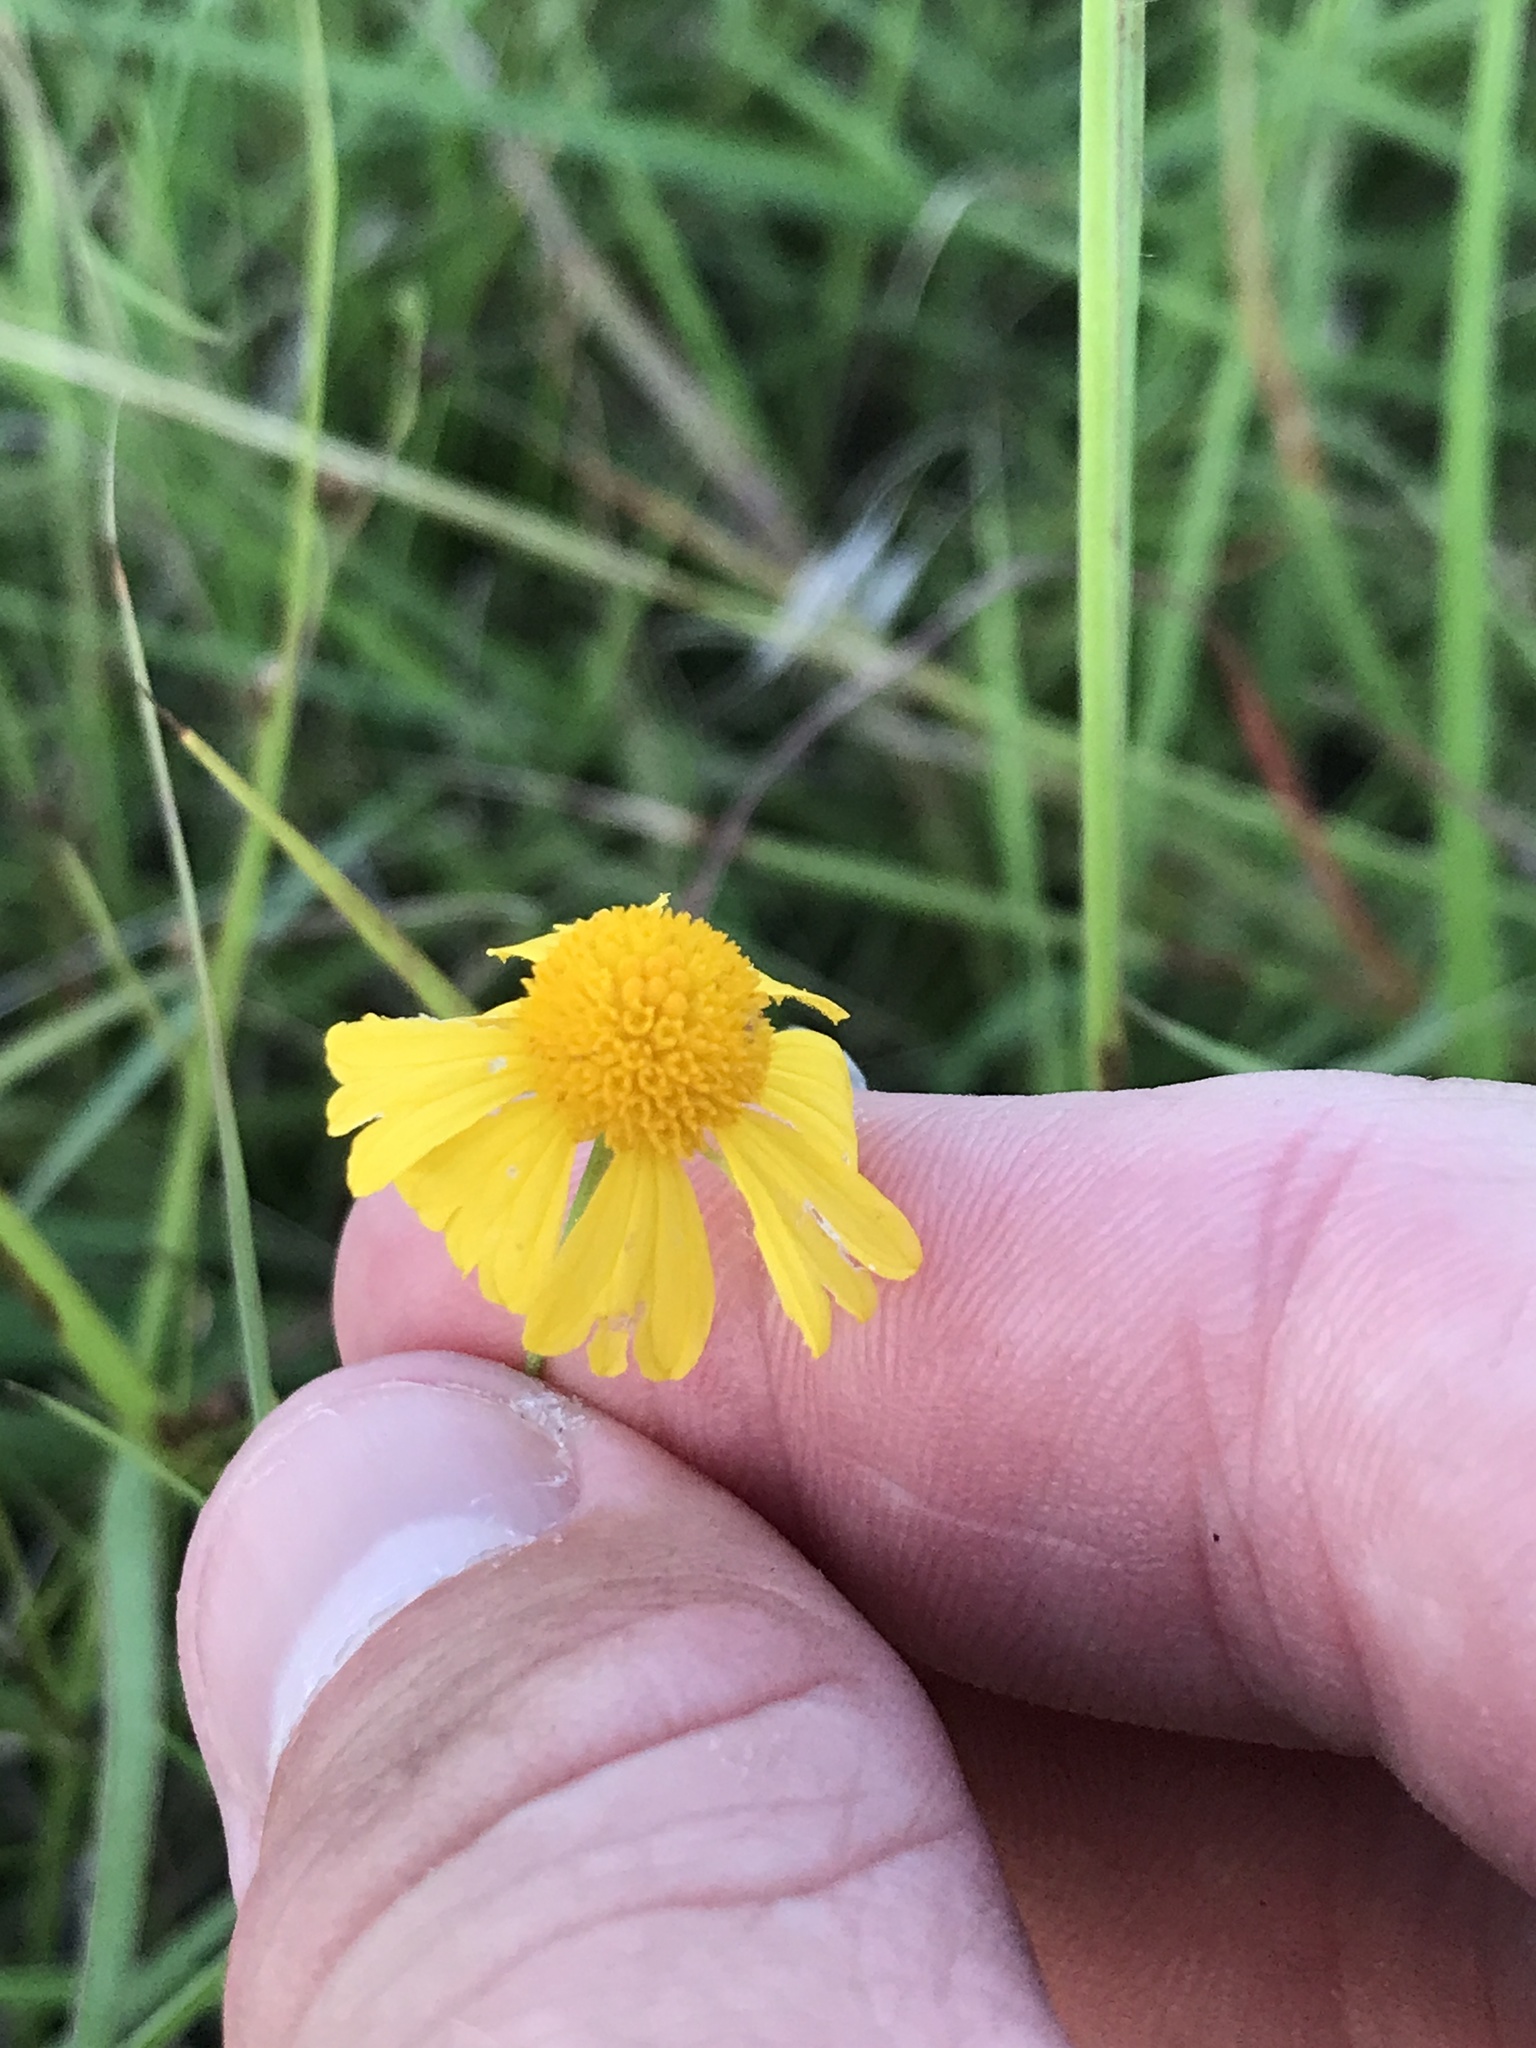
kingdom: Plantae
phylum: Tracheophyta
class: Magnoliopsida
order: Asterales
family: Asteraceae
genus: Helenium
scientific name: Helenium amarum
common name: Bitter sneezeweed
